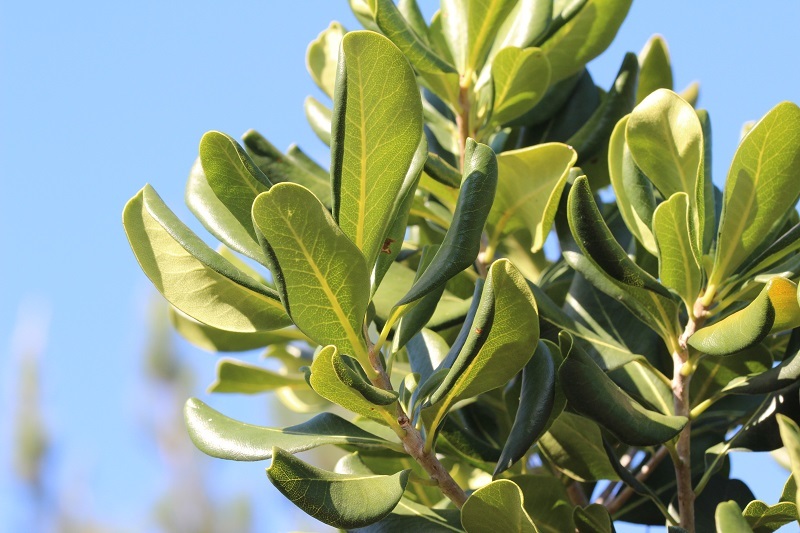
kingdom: Plantae
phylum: Tracheophyta
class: Magnoliopsida
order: Apiales
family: Pittosporaceae
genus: Pittosporum
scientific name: Pittosporum viridiflorum
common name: Cape cheesewood
